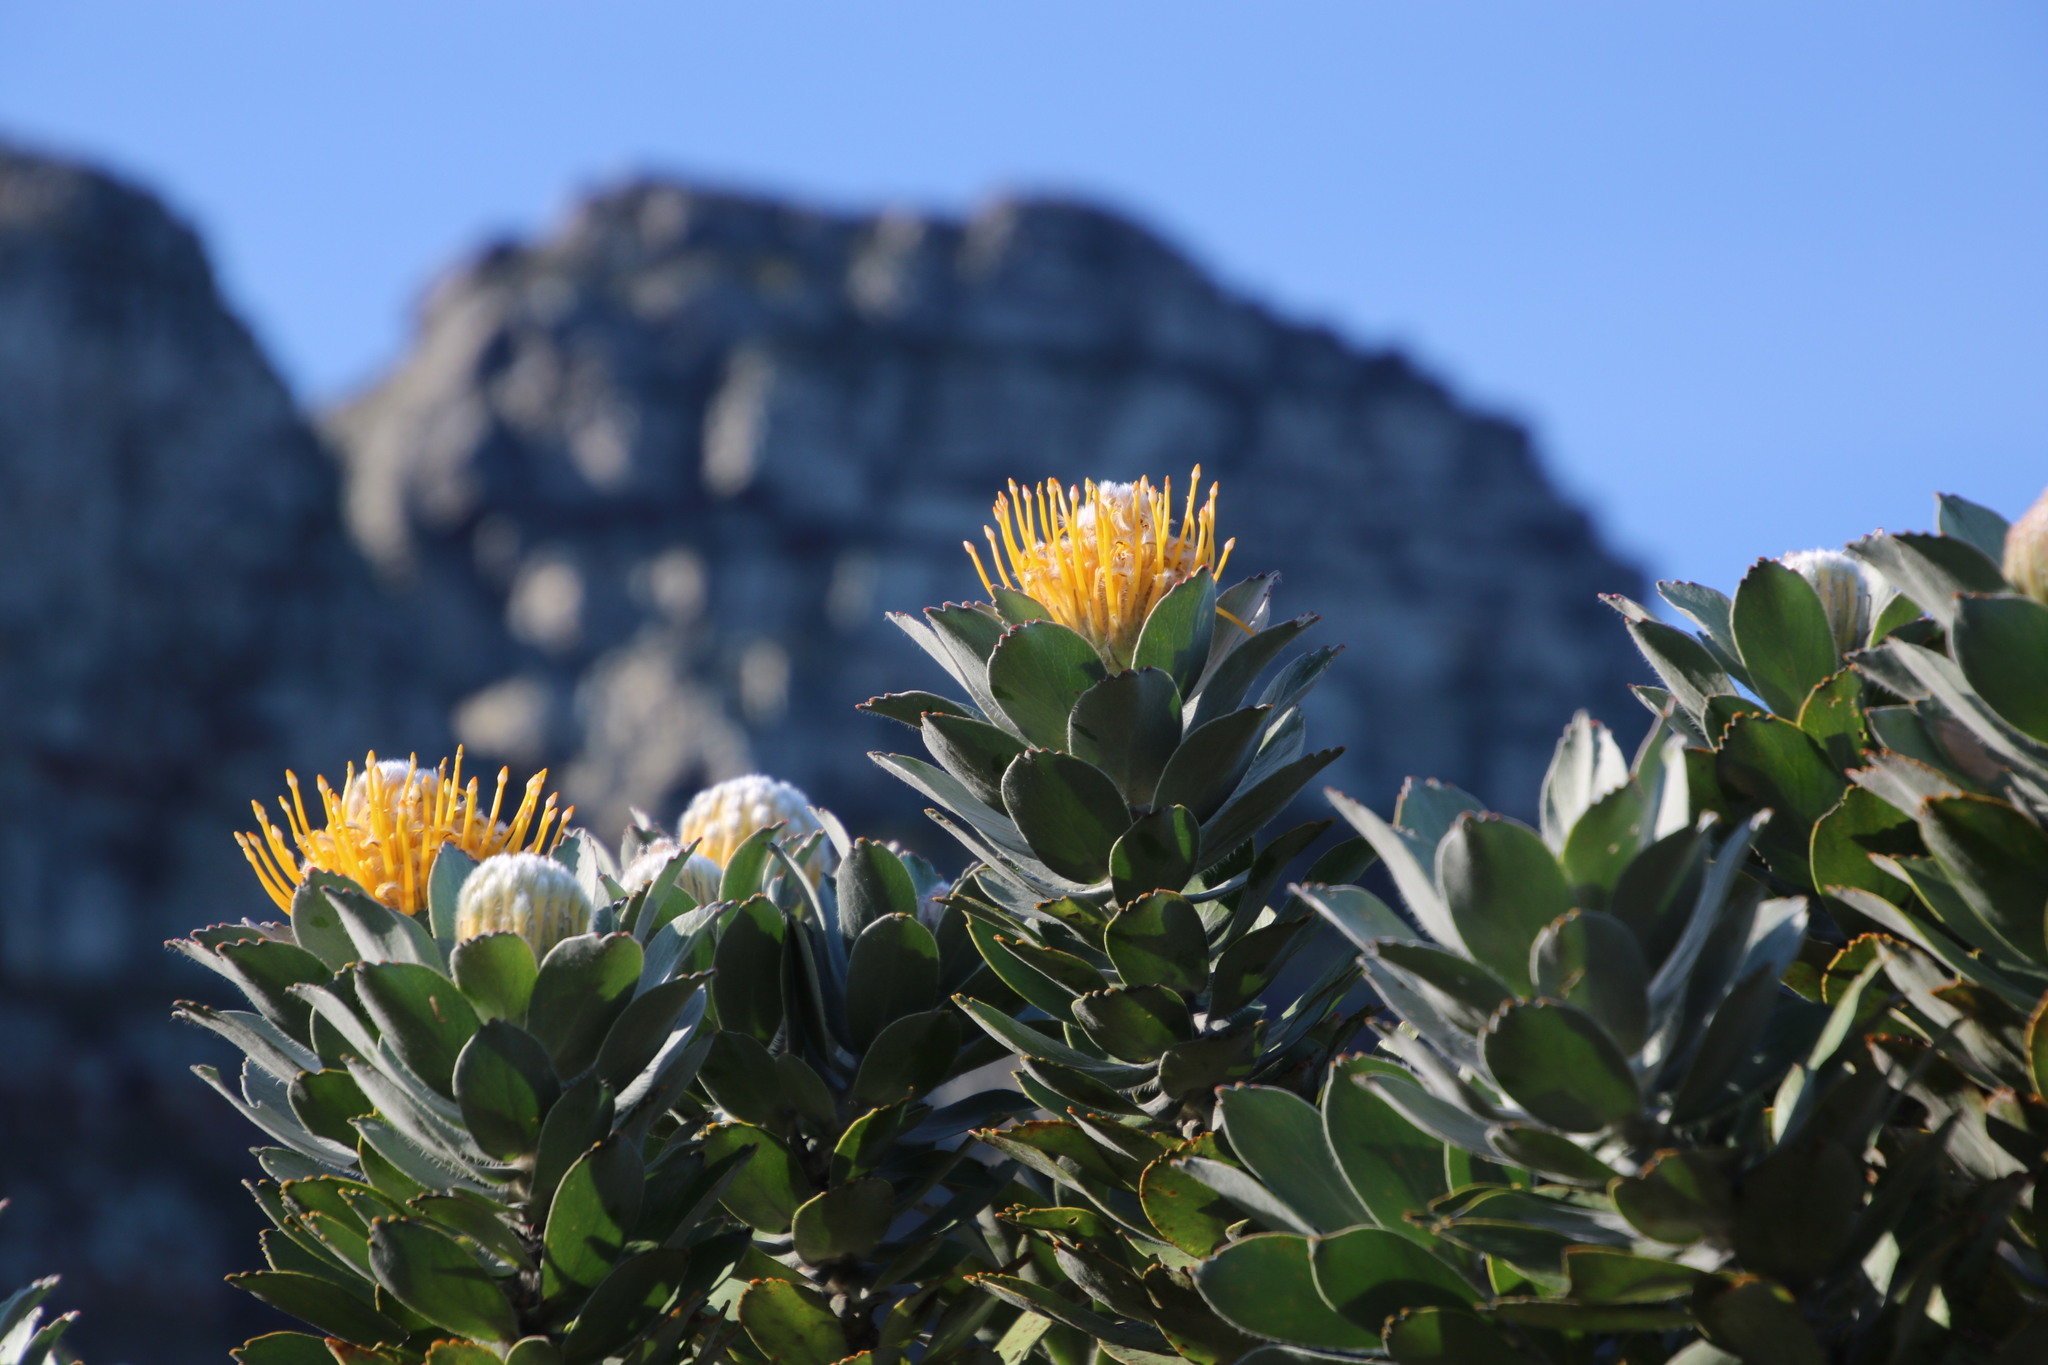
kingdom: Plantae
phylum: Tracheophyta
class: Magnoliopsida
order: Proteales
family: Proteaceae
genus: Leucospermum
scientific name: Leucospermum conocarpodendron
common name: Tree pincushion
